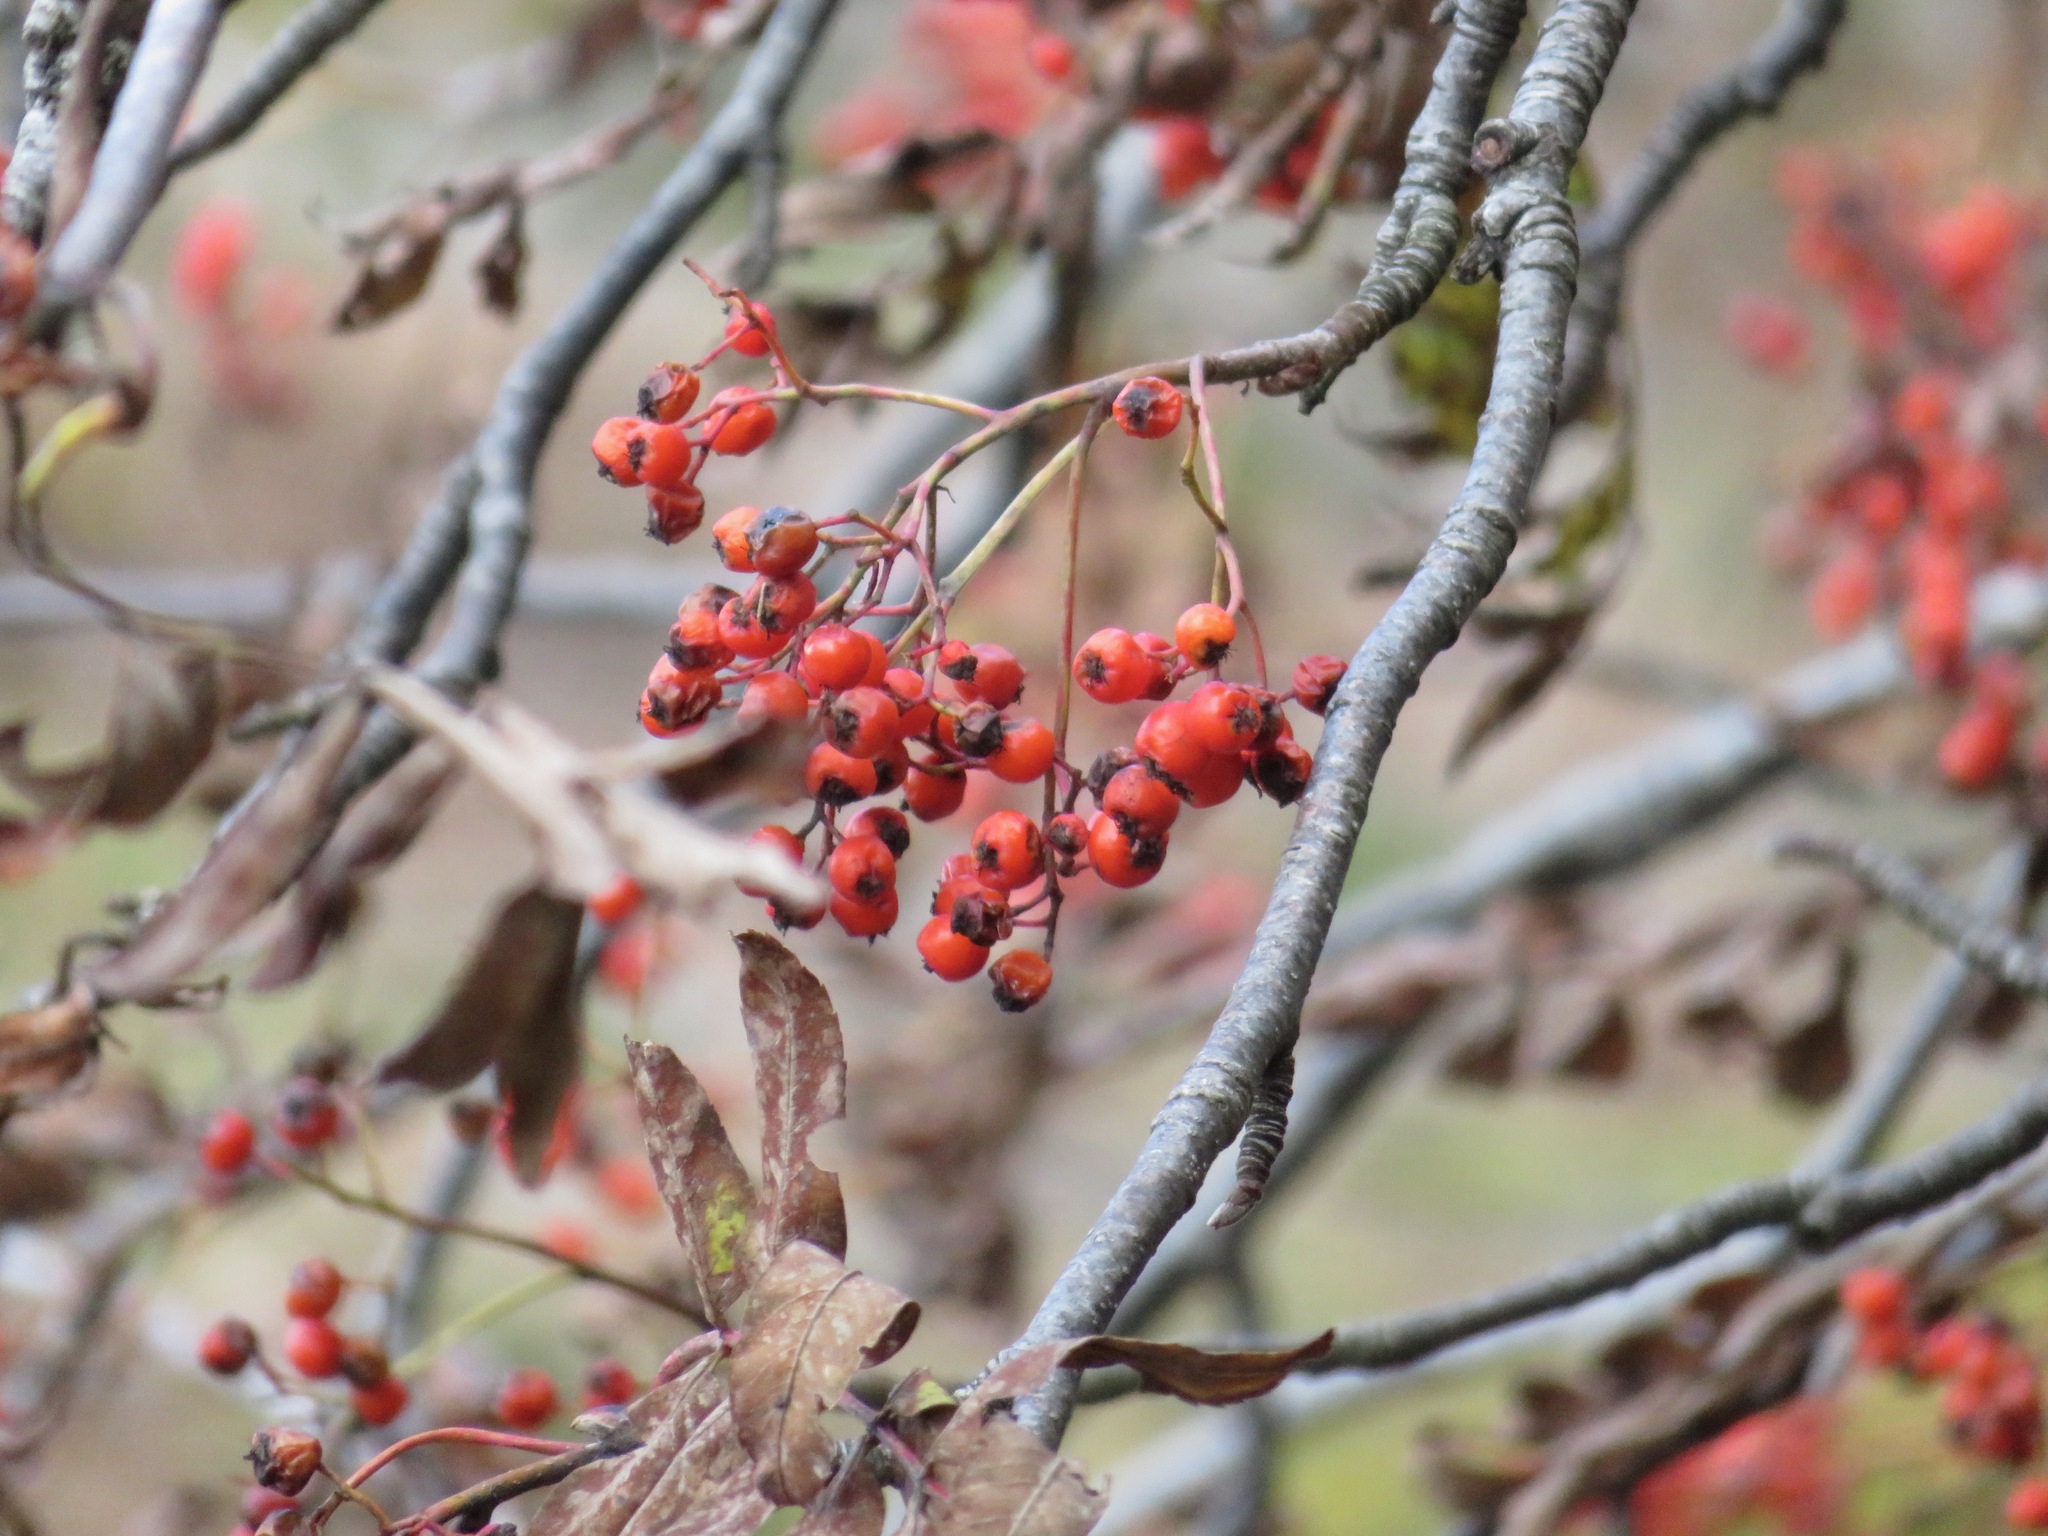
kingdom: Plantae
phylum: Tracheophyta
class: Magnoliopsida
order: Rosales
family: Rosaceae
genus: Sorbus
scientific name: Sorbus aucuparia
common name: Rowan
